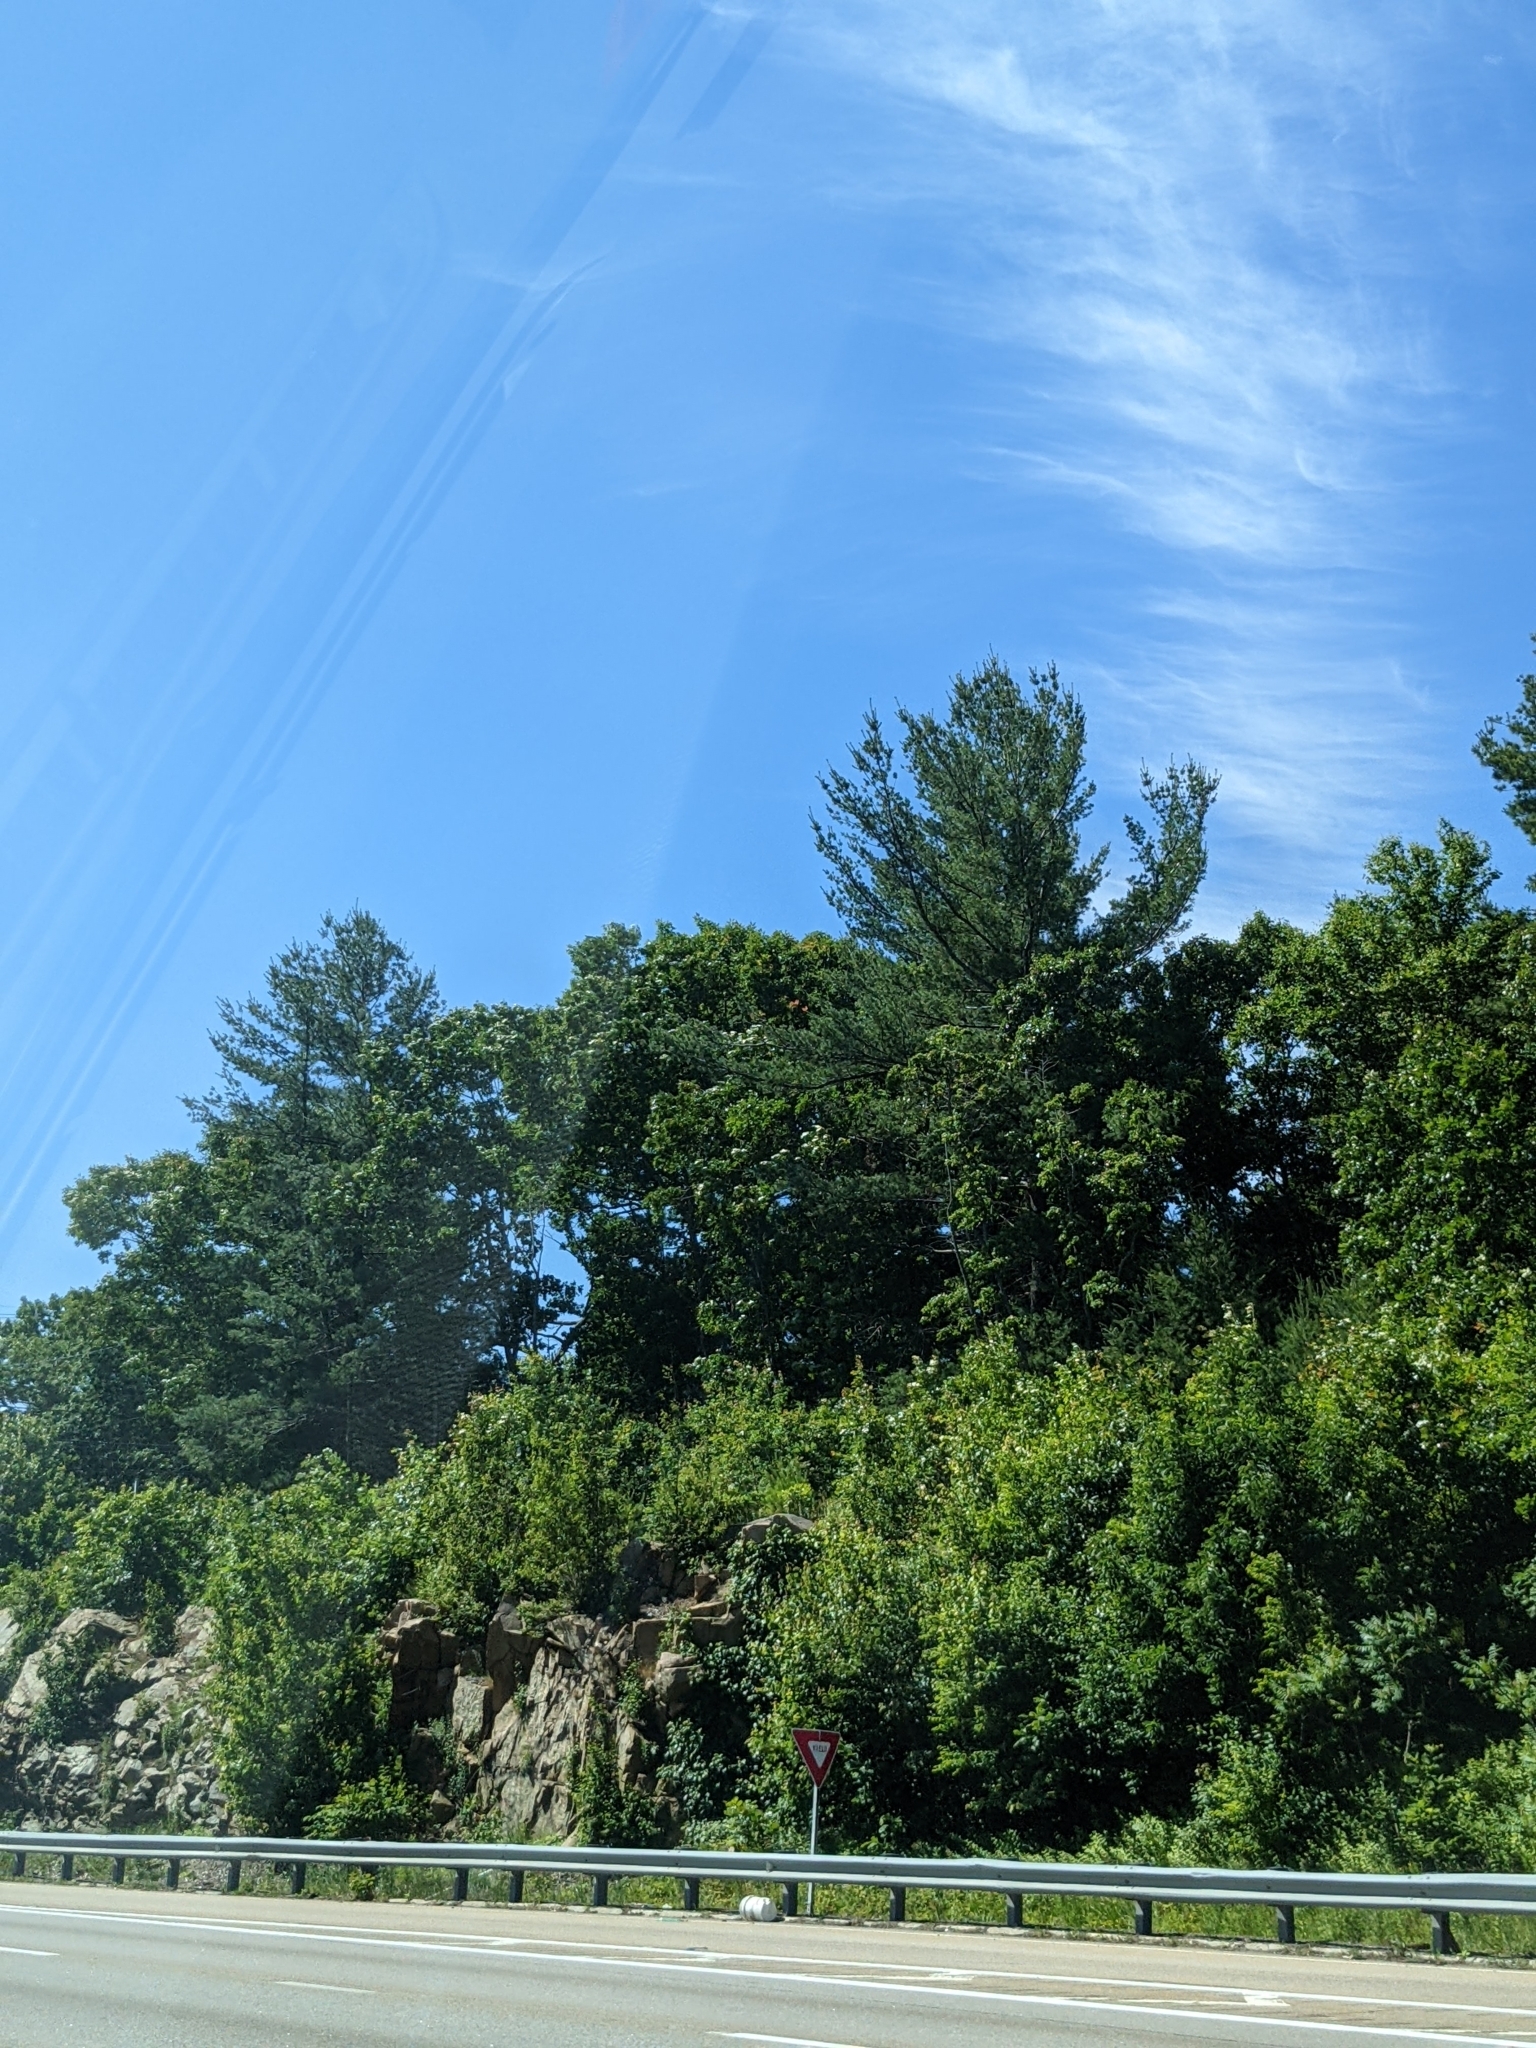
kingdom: Plantae
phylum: Tracheophyta
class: Pinopsida
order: Pinales
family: Pinaceae
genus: Pinus
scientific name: Pinus strobus
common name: Weymouth pine
